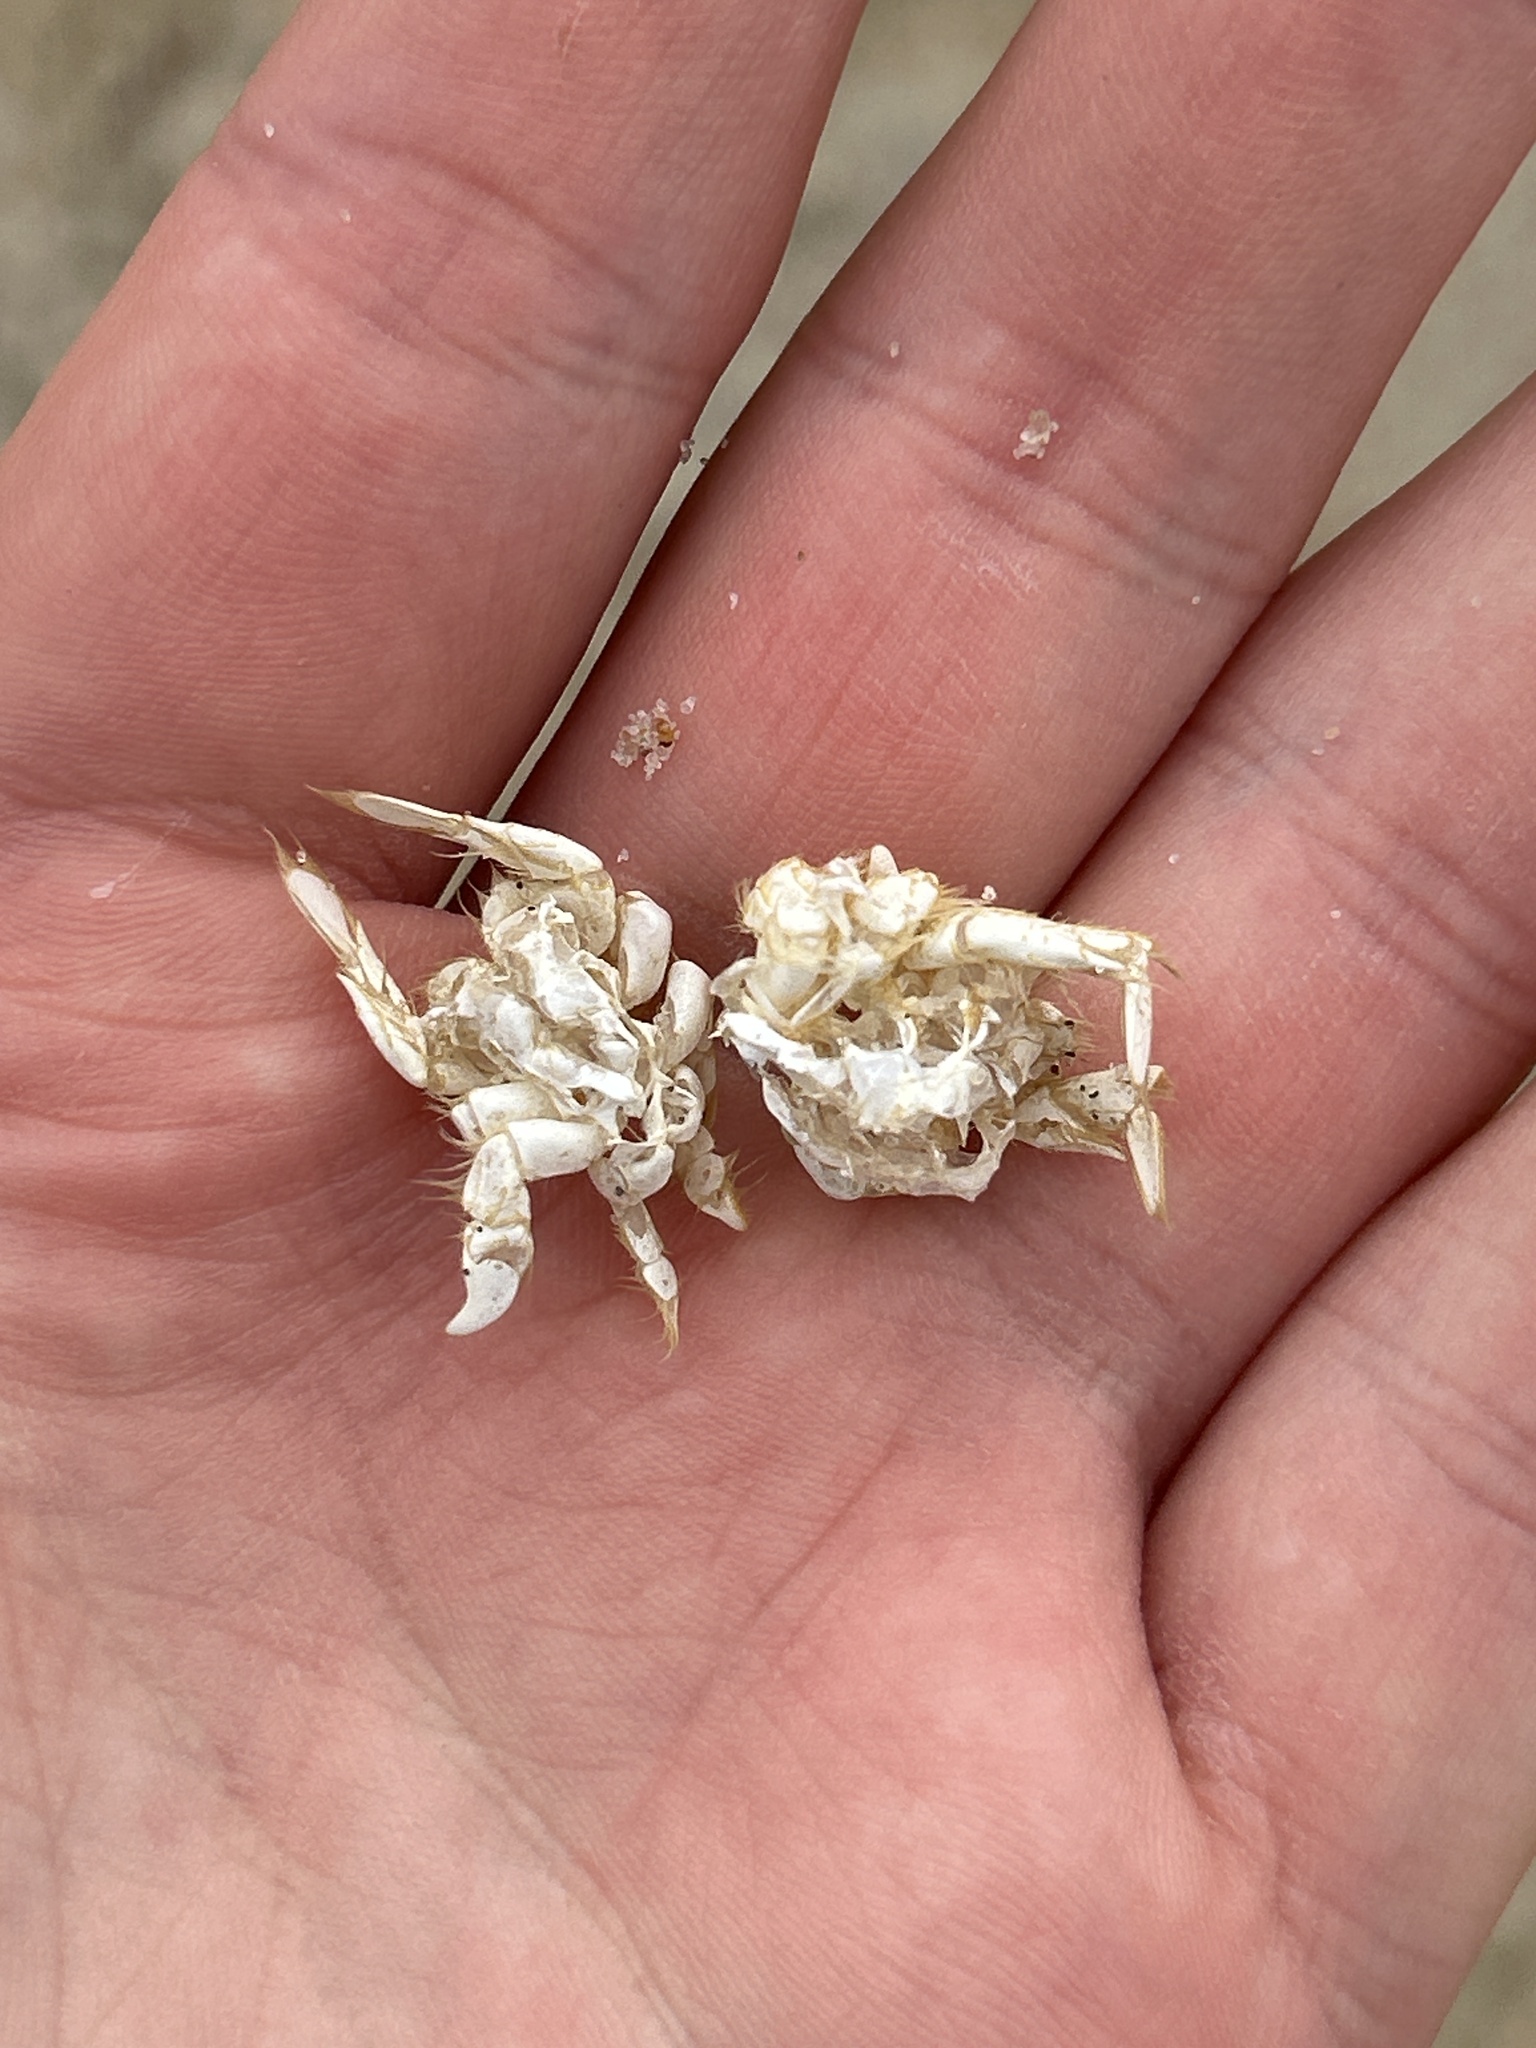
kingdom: Animalia
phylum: Arthropoda
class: Malacostraca
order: Decapoda
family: Hippidae
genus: Emerita
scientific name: Emerita talpoida
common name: Atlantic sand crab
